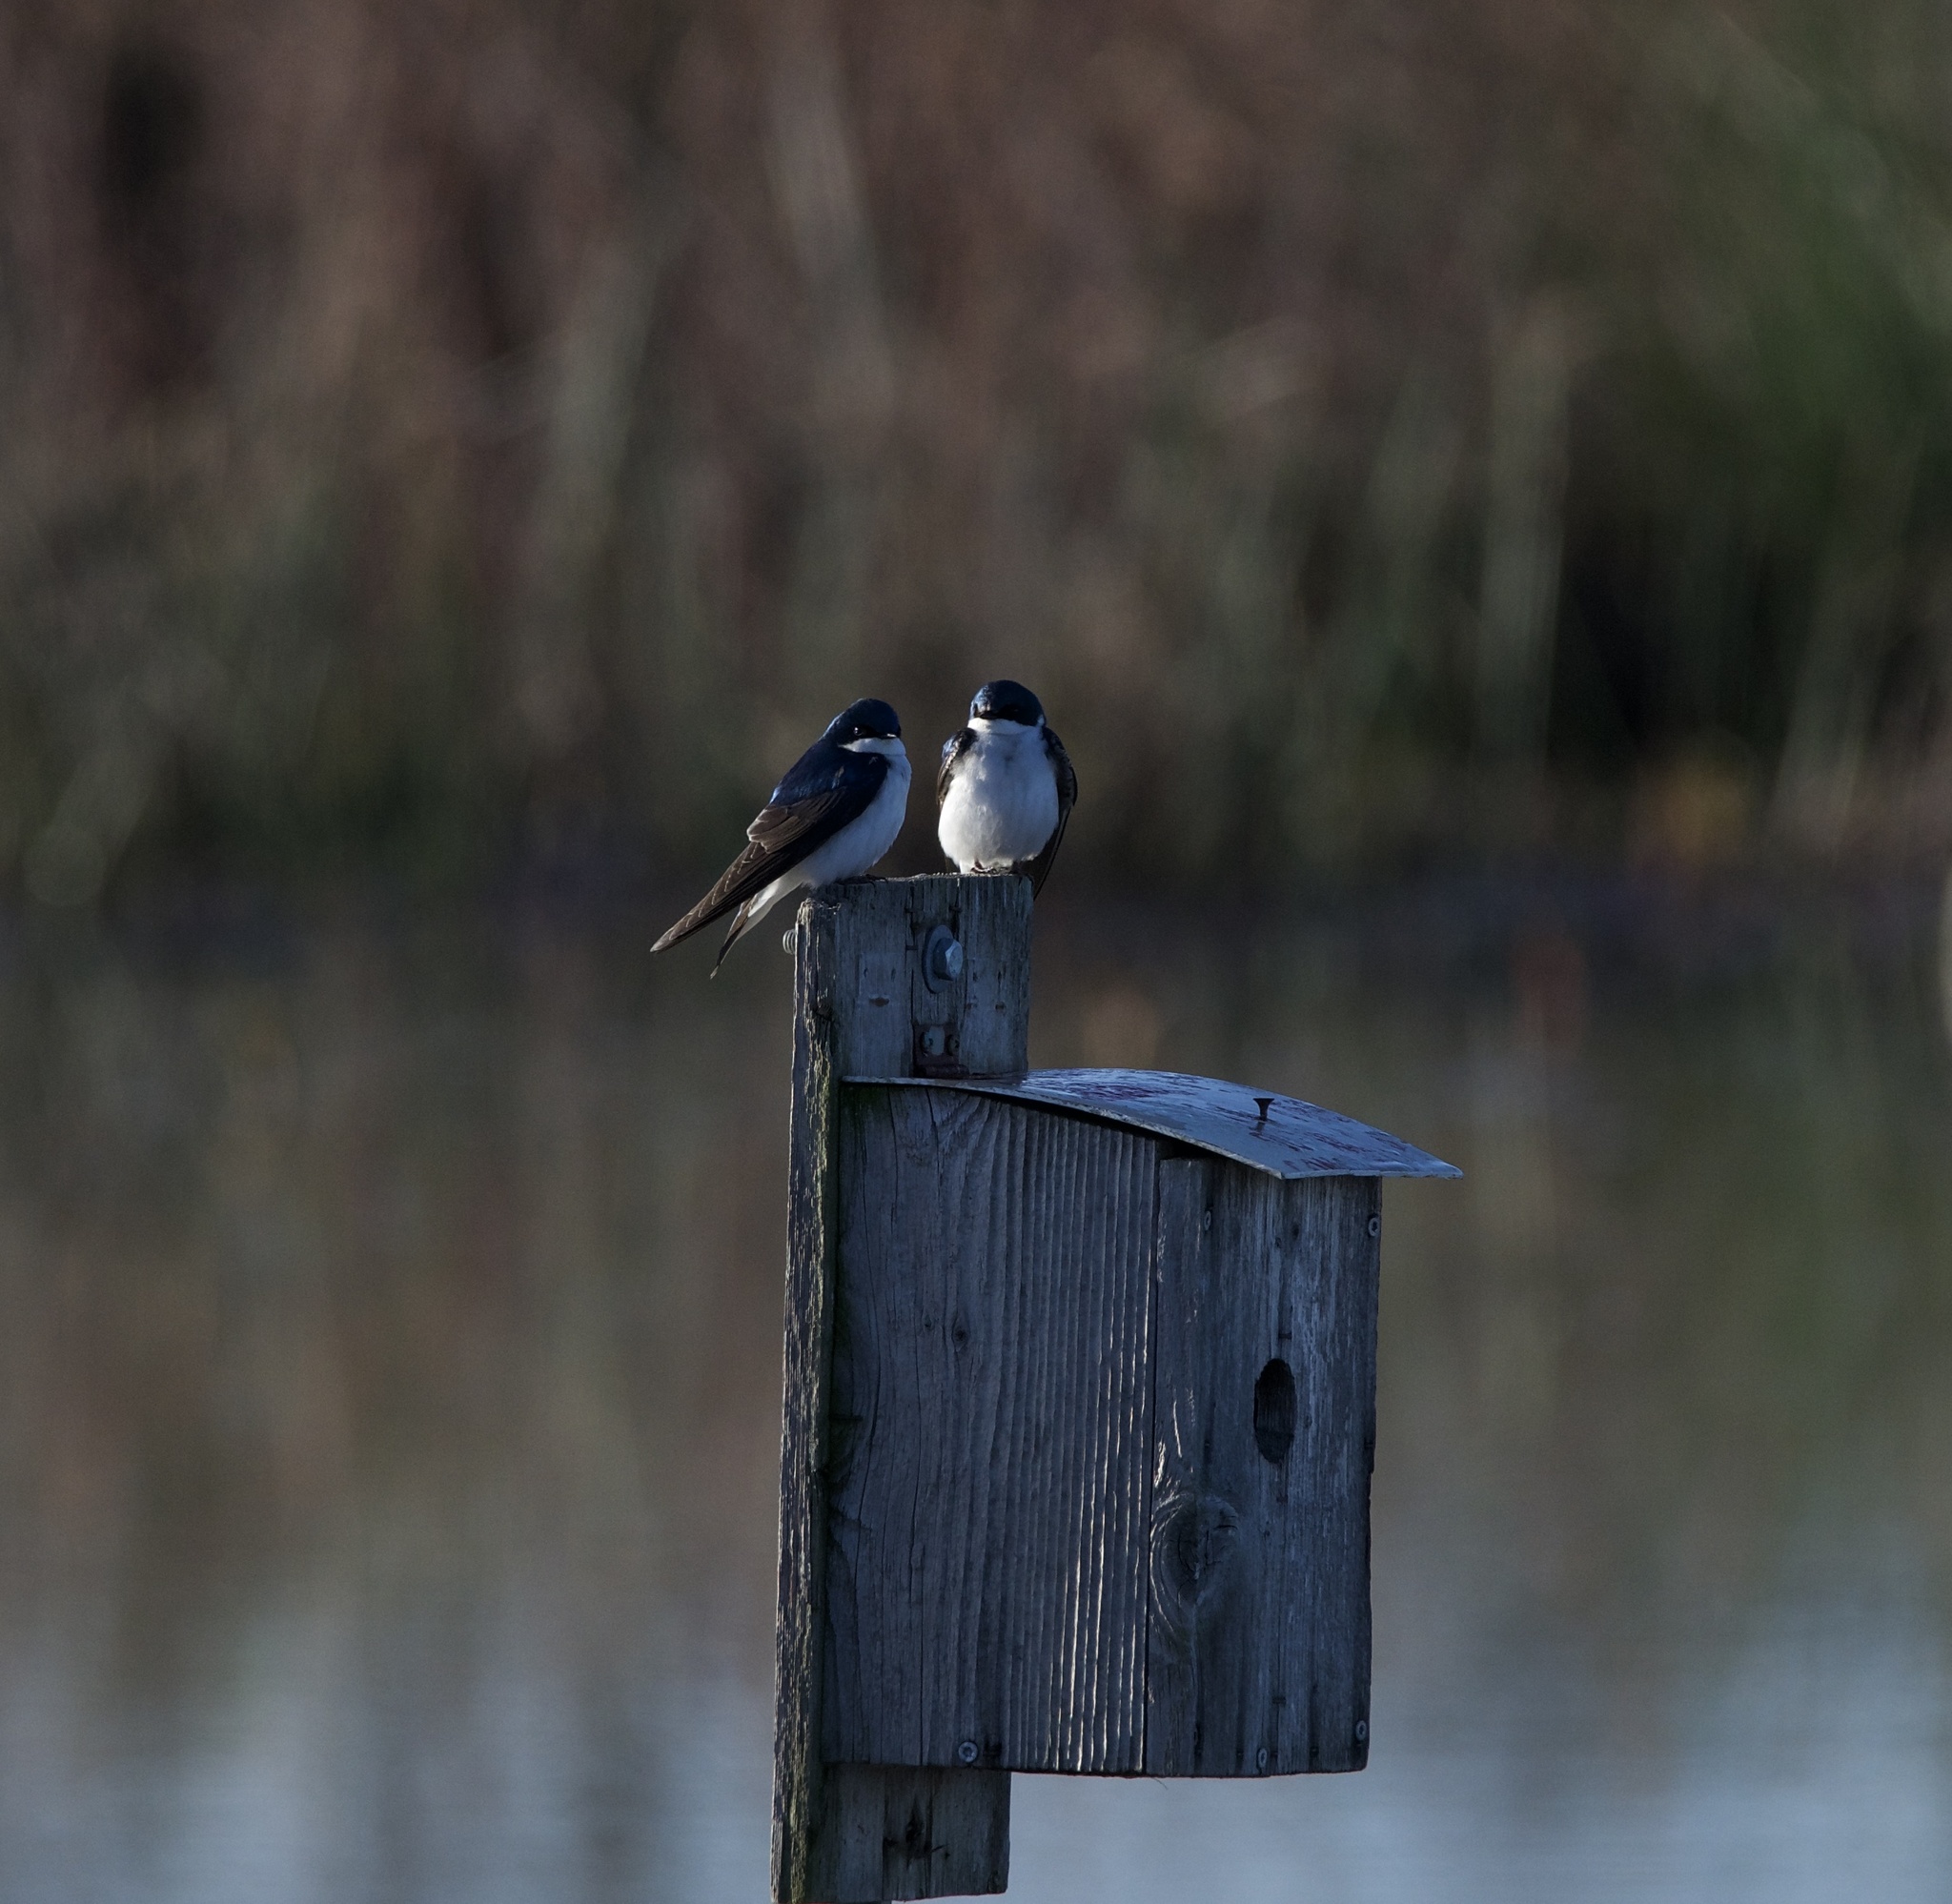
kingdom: Animalia
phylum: Chordata
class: Aves
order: Passeriformes
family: Hirundinidae
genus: Tachycineta
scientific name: Tachycineta bicolor
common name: Tree swallow
